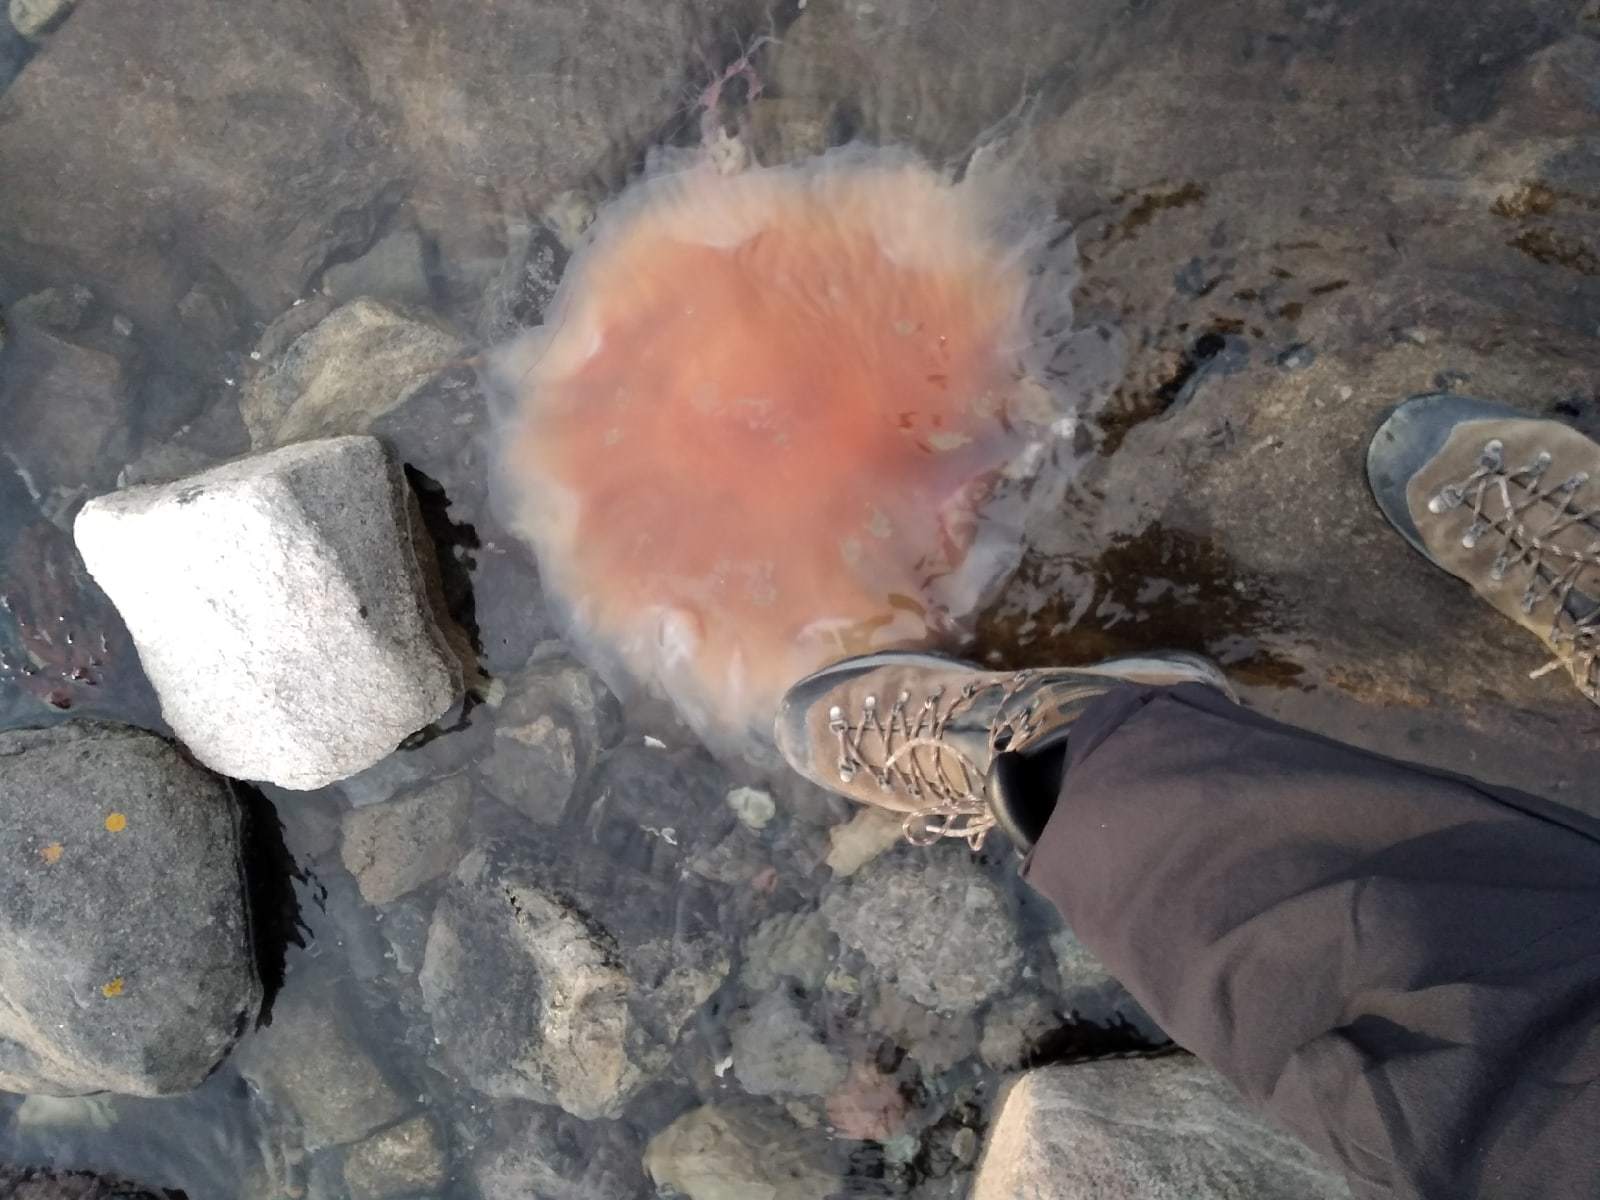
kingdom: Animalia
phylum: Cnidaria
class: Scyphozoa
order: Semaeostomeae
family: Cyaneidae
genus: Cyanea
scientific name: Cyanea capillata
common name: Lion's mane jellyfish
